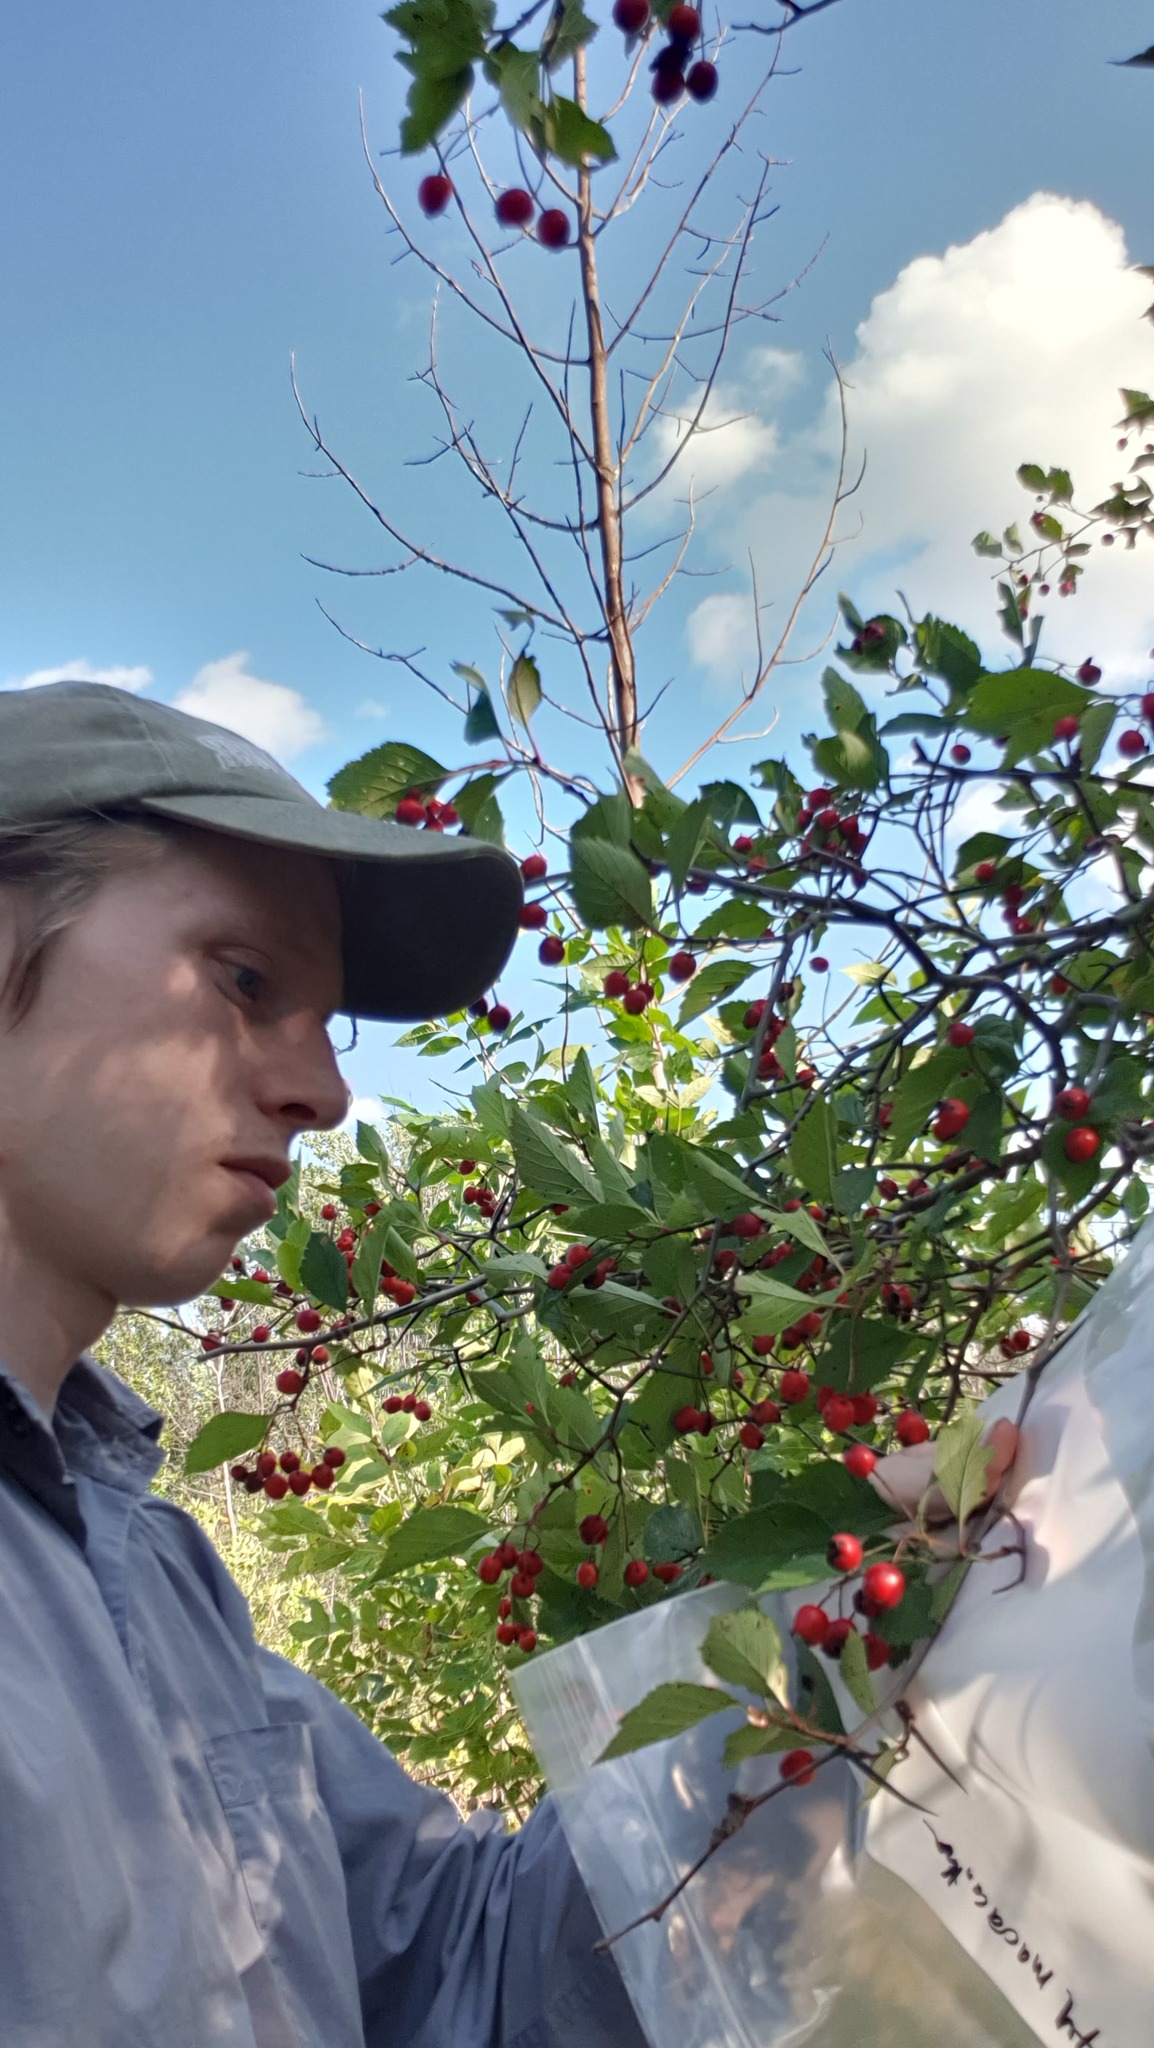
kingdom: Plantae
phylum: Tracheophyta
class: Magnoliopsida
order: Rosales
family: Rosaceae
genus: Crataegus
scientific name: Crataegus macracantha
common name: Large-thorn hawthorn
